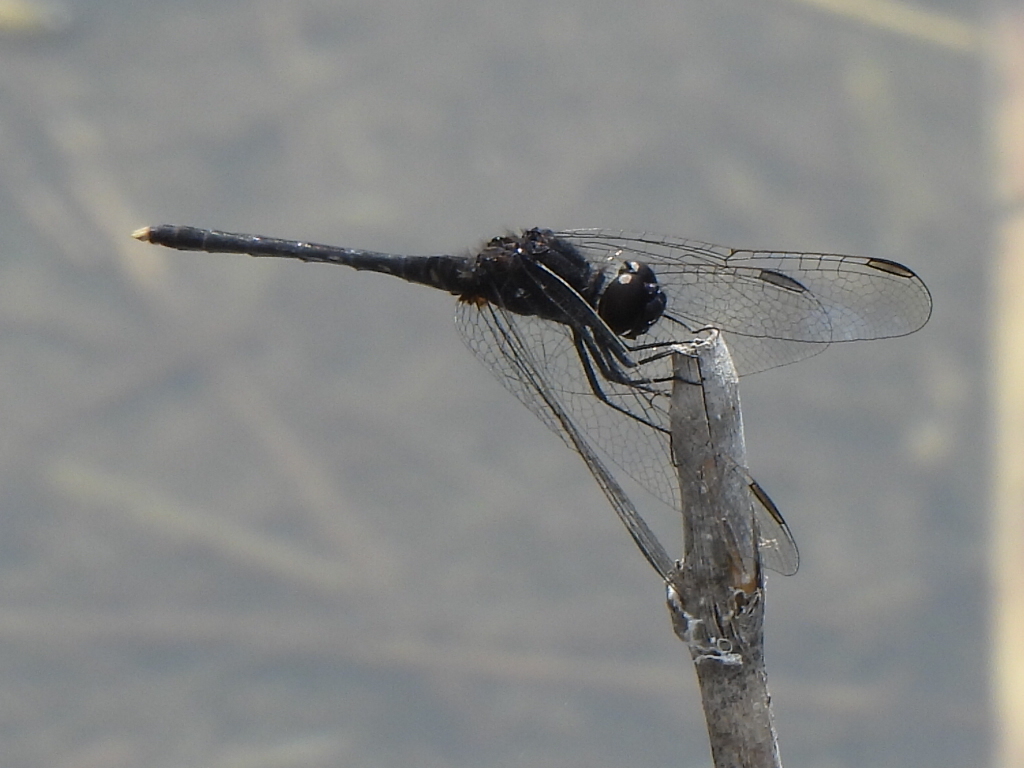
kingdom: Animalia
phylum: Arthropoda
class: Insecta
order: Odonata
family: Libellulidae
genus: Diplacodes
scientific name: Diplacodes lefebvrii
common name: Black percher
